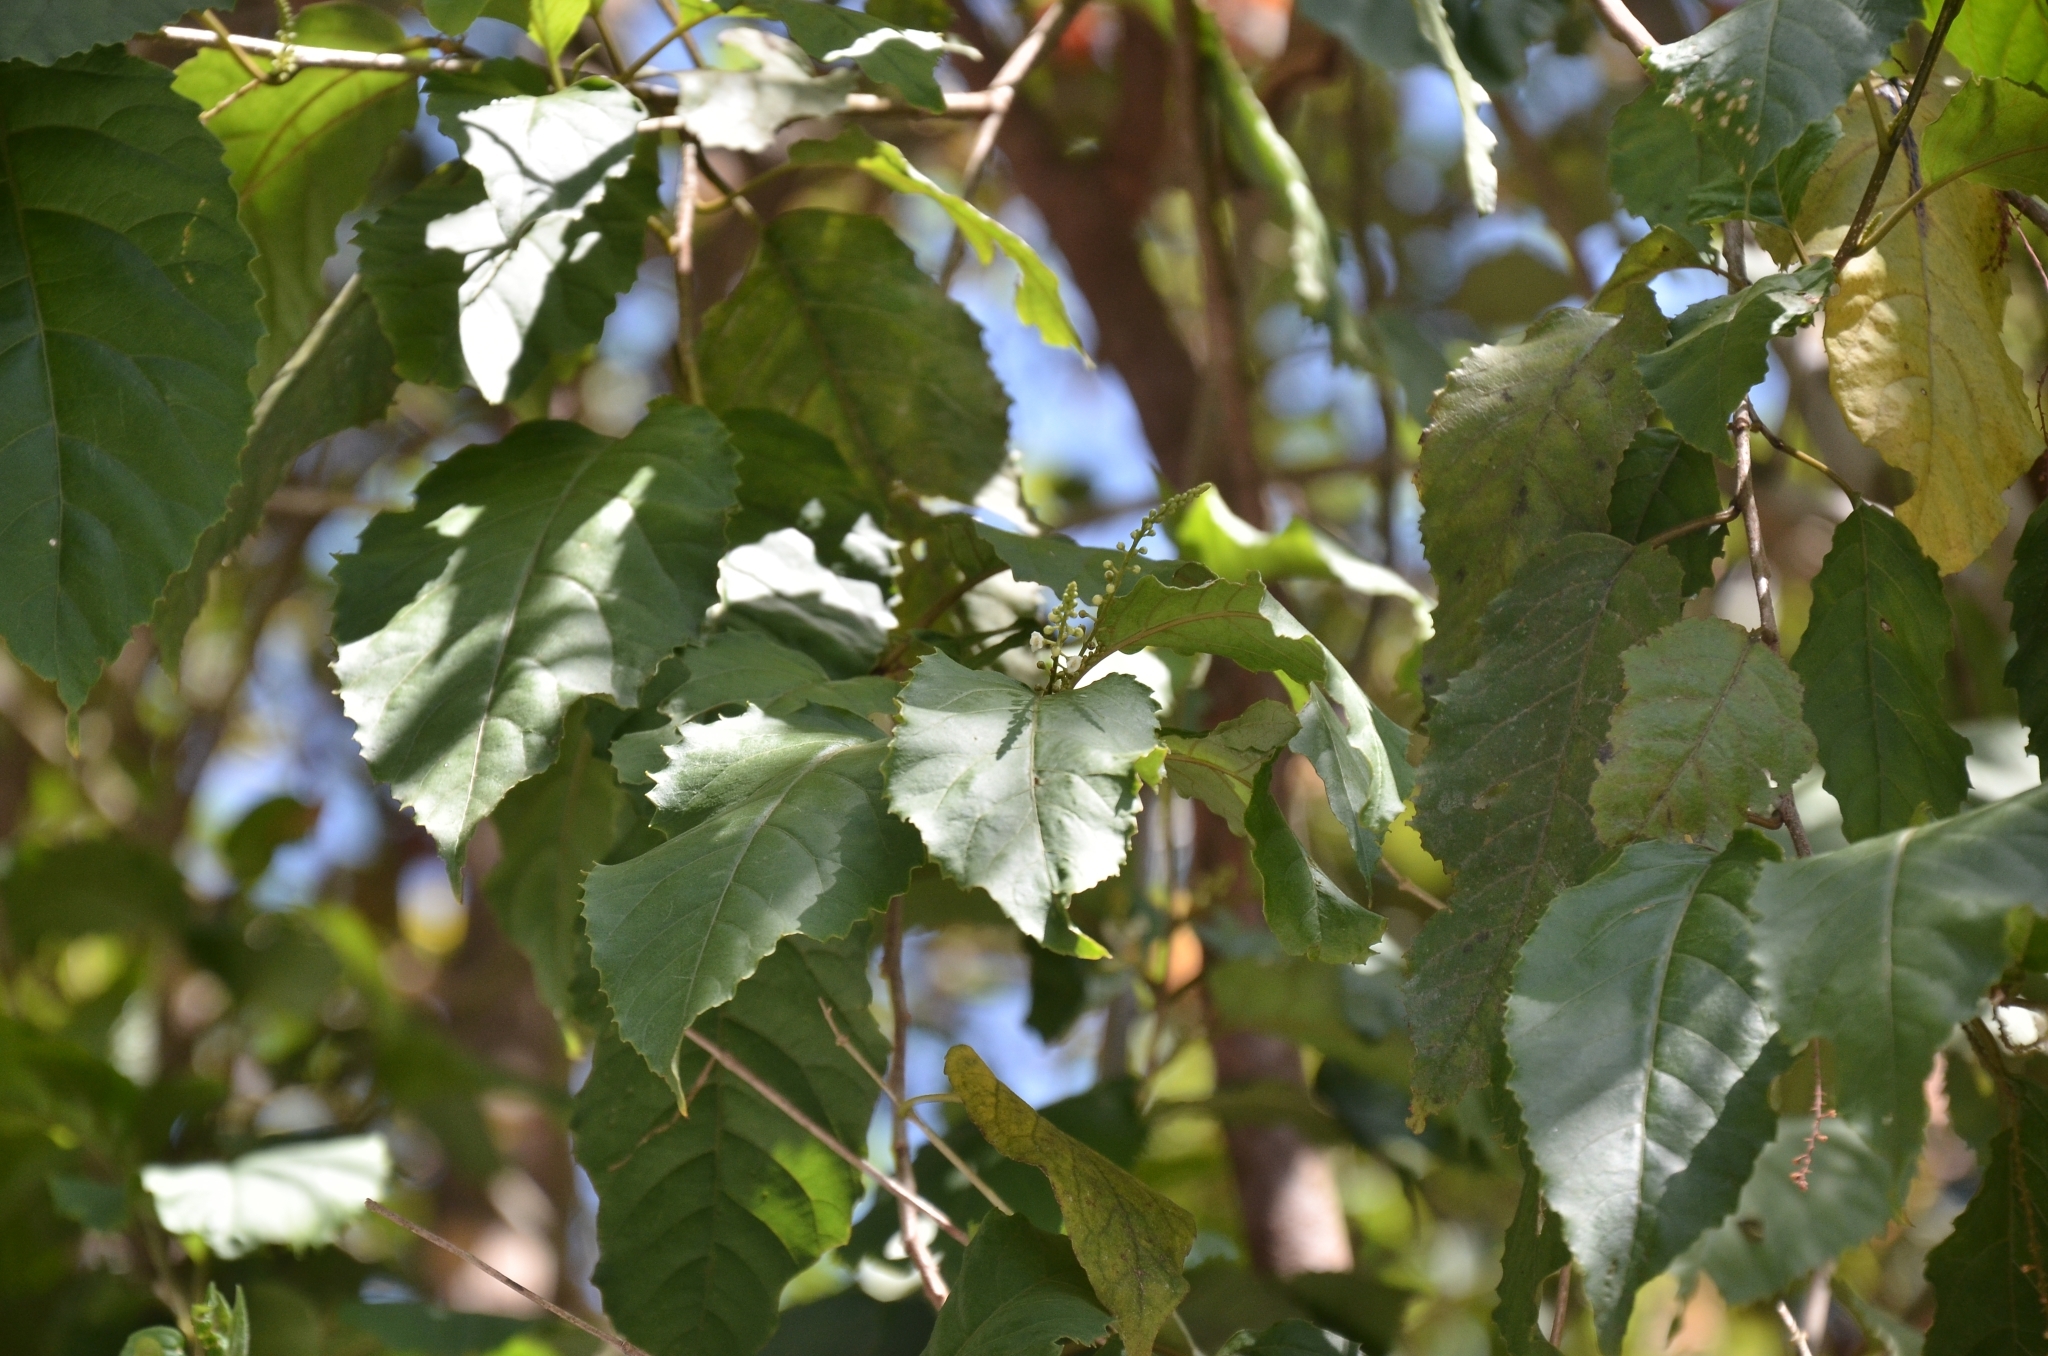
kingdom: Plantae
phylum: Tracheophyta
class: Magnoliopsida
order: Ericales
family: Primulaceae
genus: Maesa
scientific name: Maesa indica
